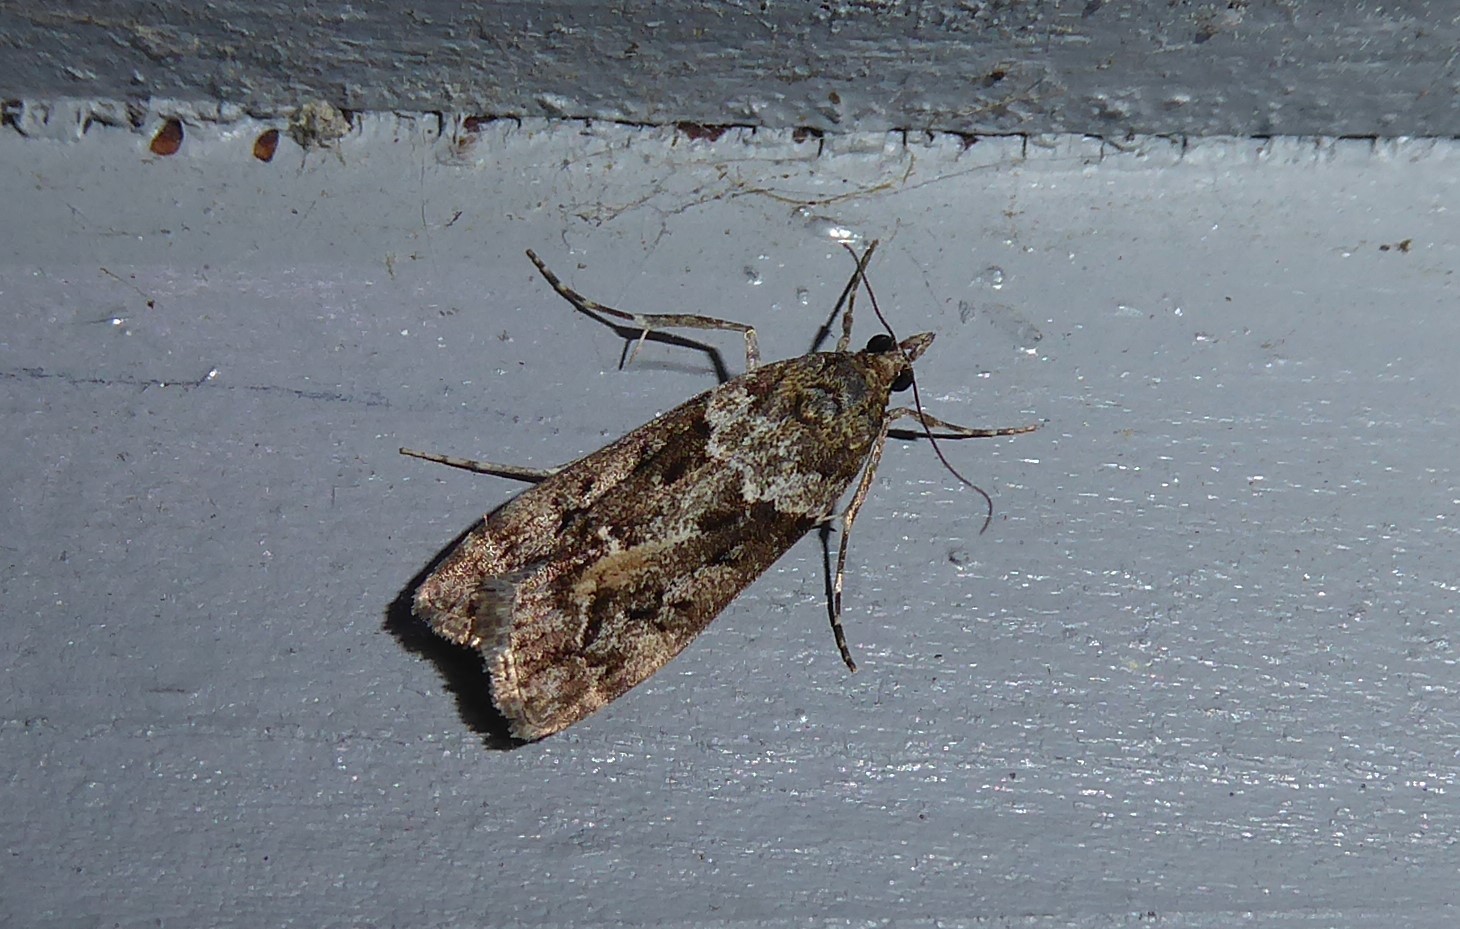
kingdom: Animalia
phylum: Arthropoda
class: Insecta
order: Lepidoptera
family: Crambidae
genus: Eudonia
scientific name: Eudonia submarginalis
